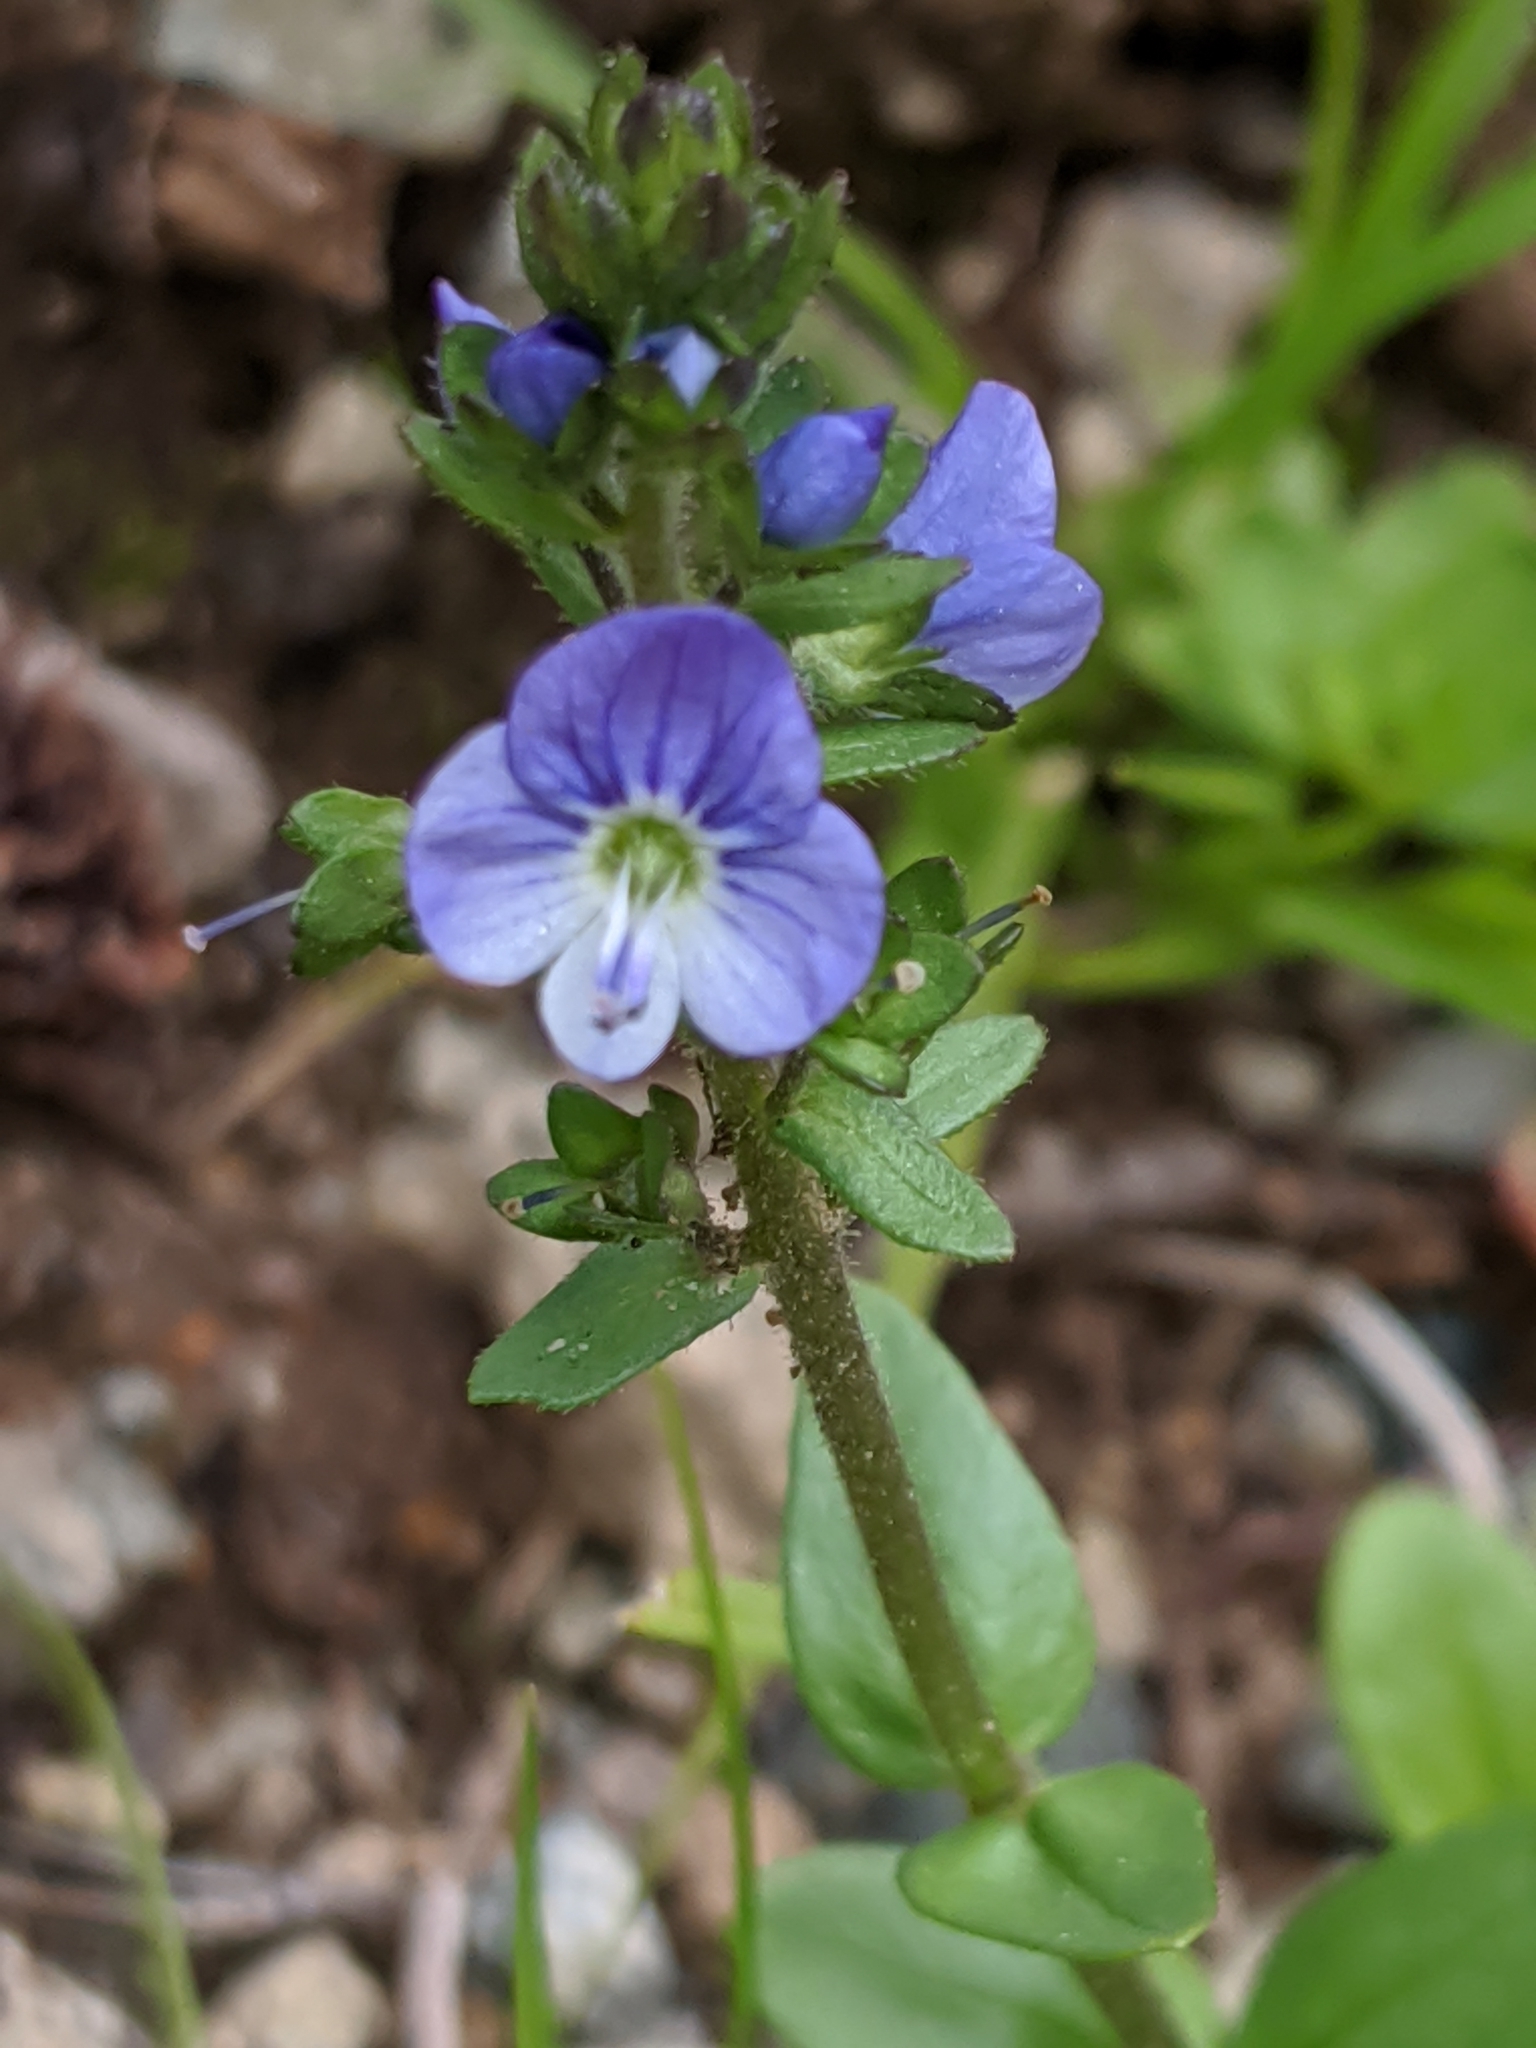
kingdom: Plantae
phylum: Tracheophyta
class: Magnoliopsida
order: Lamiales
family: Plantaginaceae
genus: Veronica
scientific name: Veronica serpyllifolia
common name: Thyme-leaved speedwell
